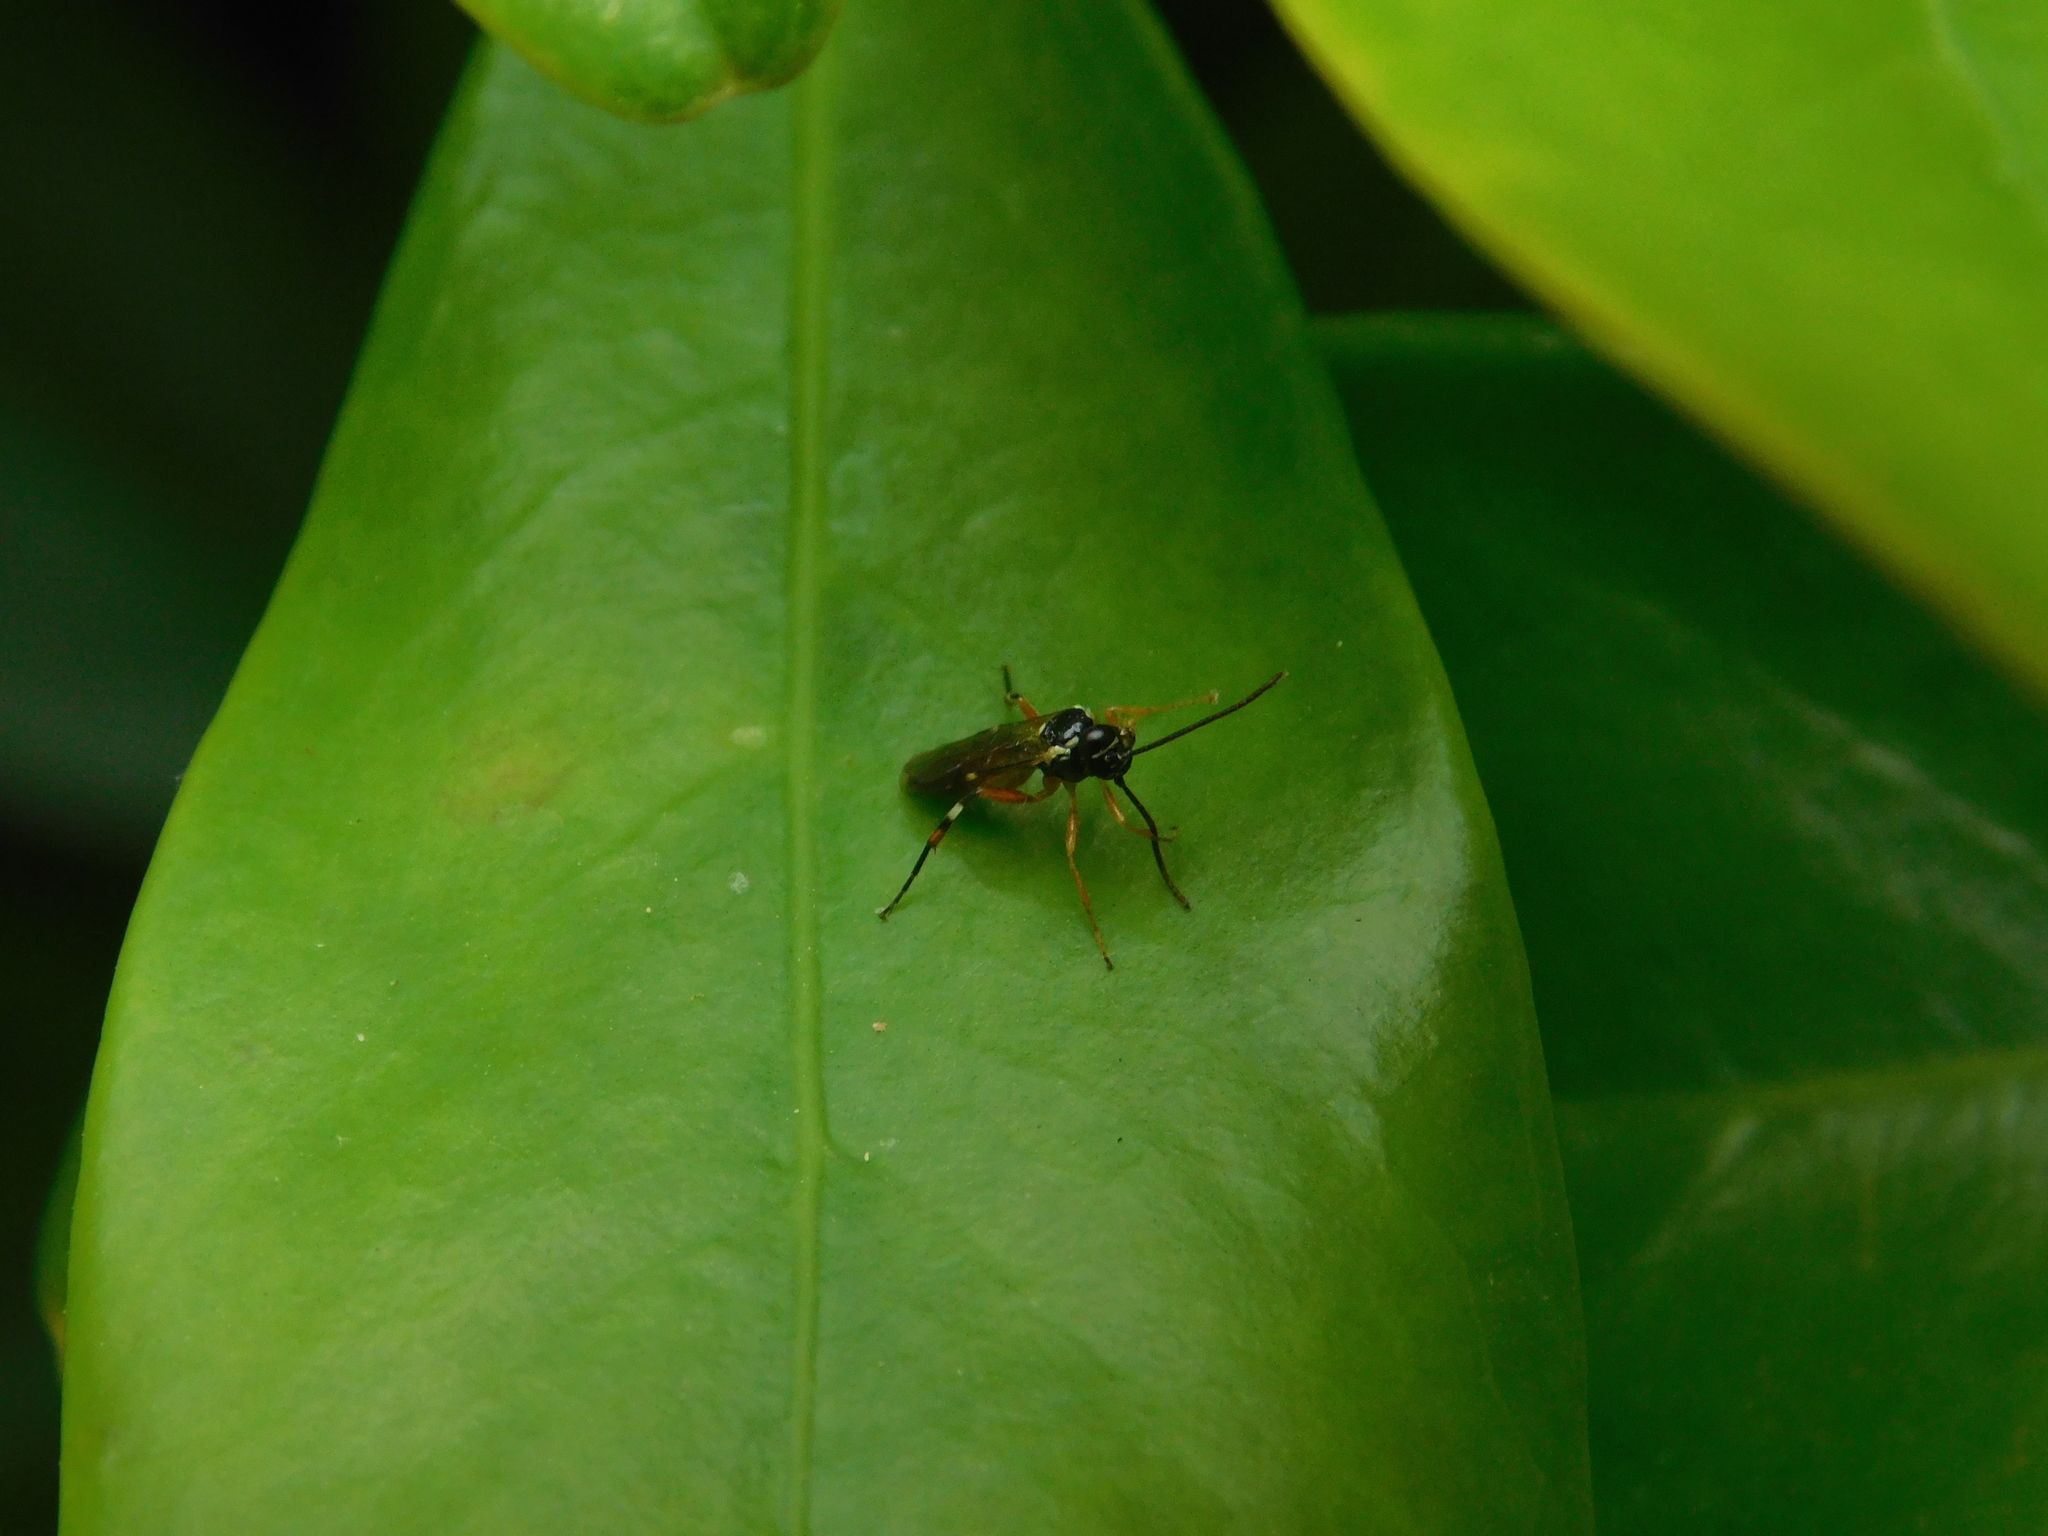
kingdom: Animalia
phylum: Arthropoda
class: Insecta
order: Hymenoptera
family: Ichneumonidae
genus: Diplazon
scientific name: Diplazon laetatorius
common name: Parasitoid wasp
